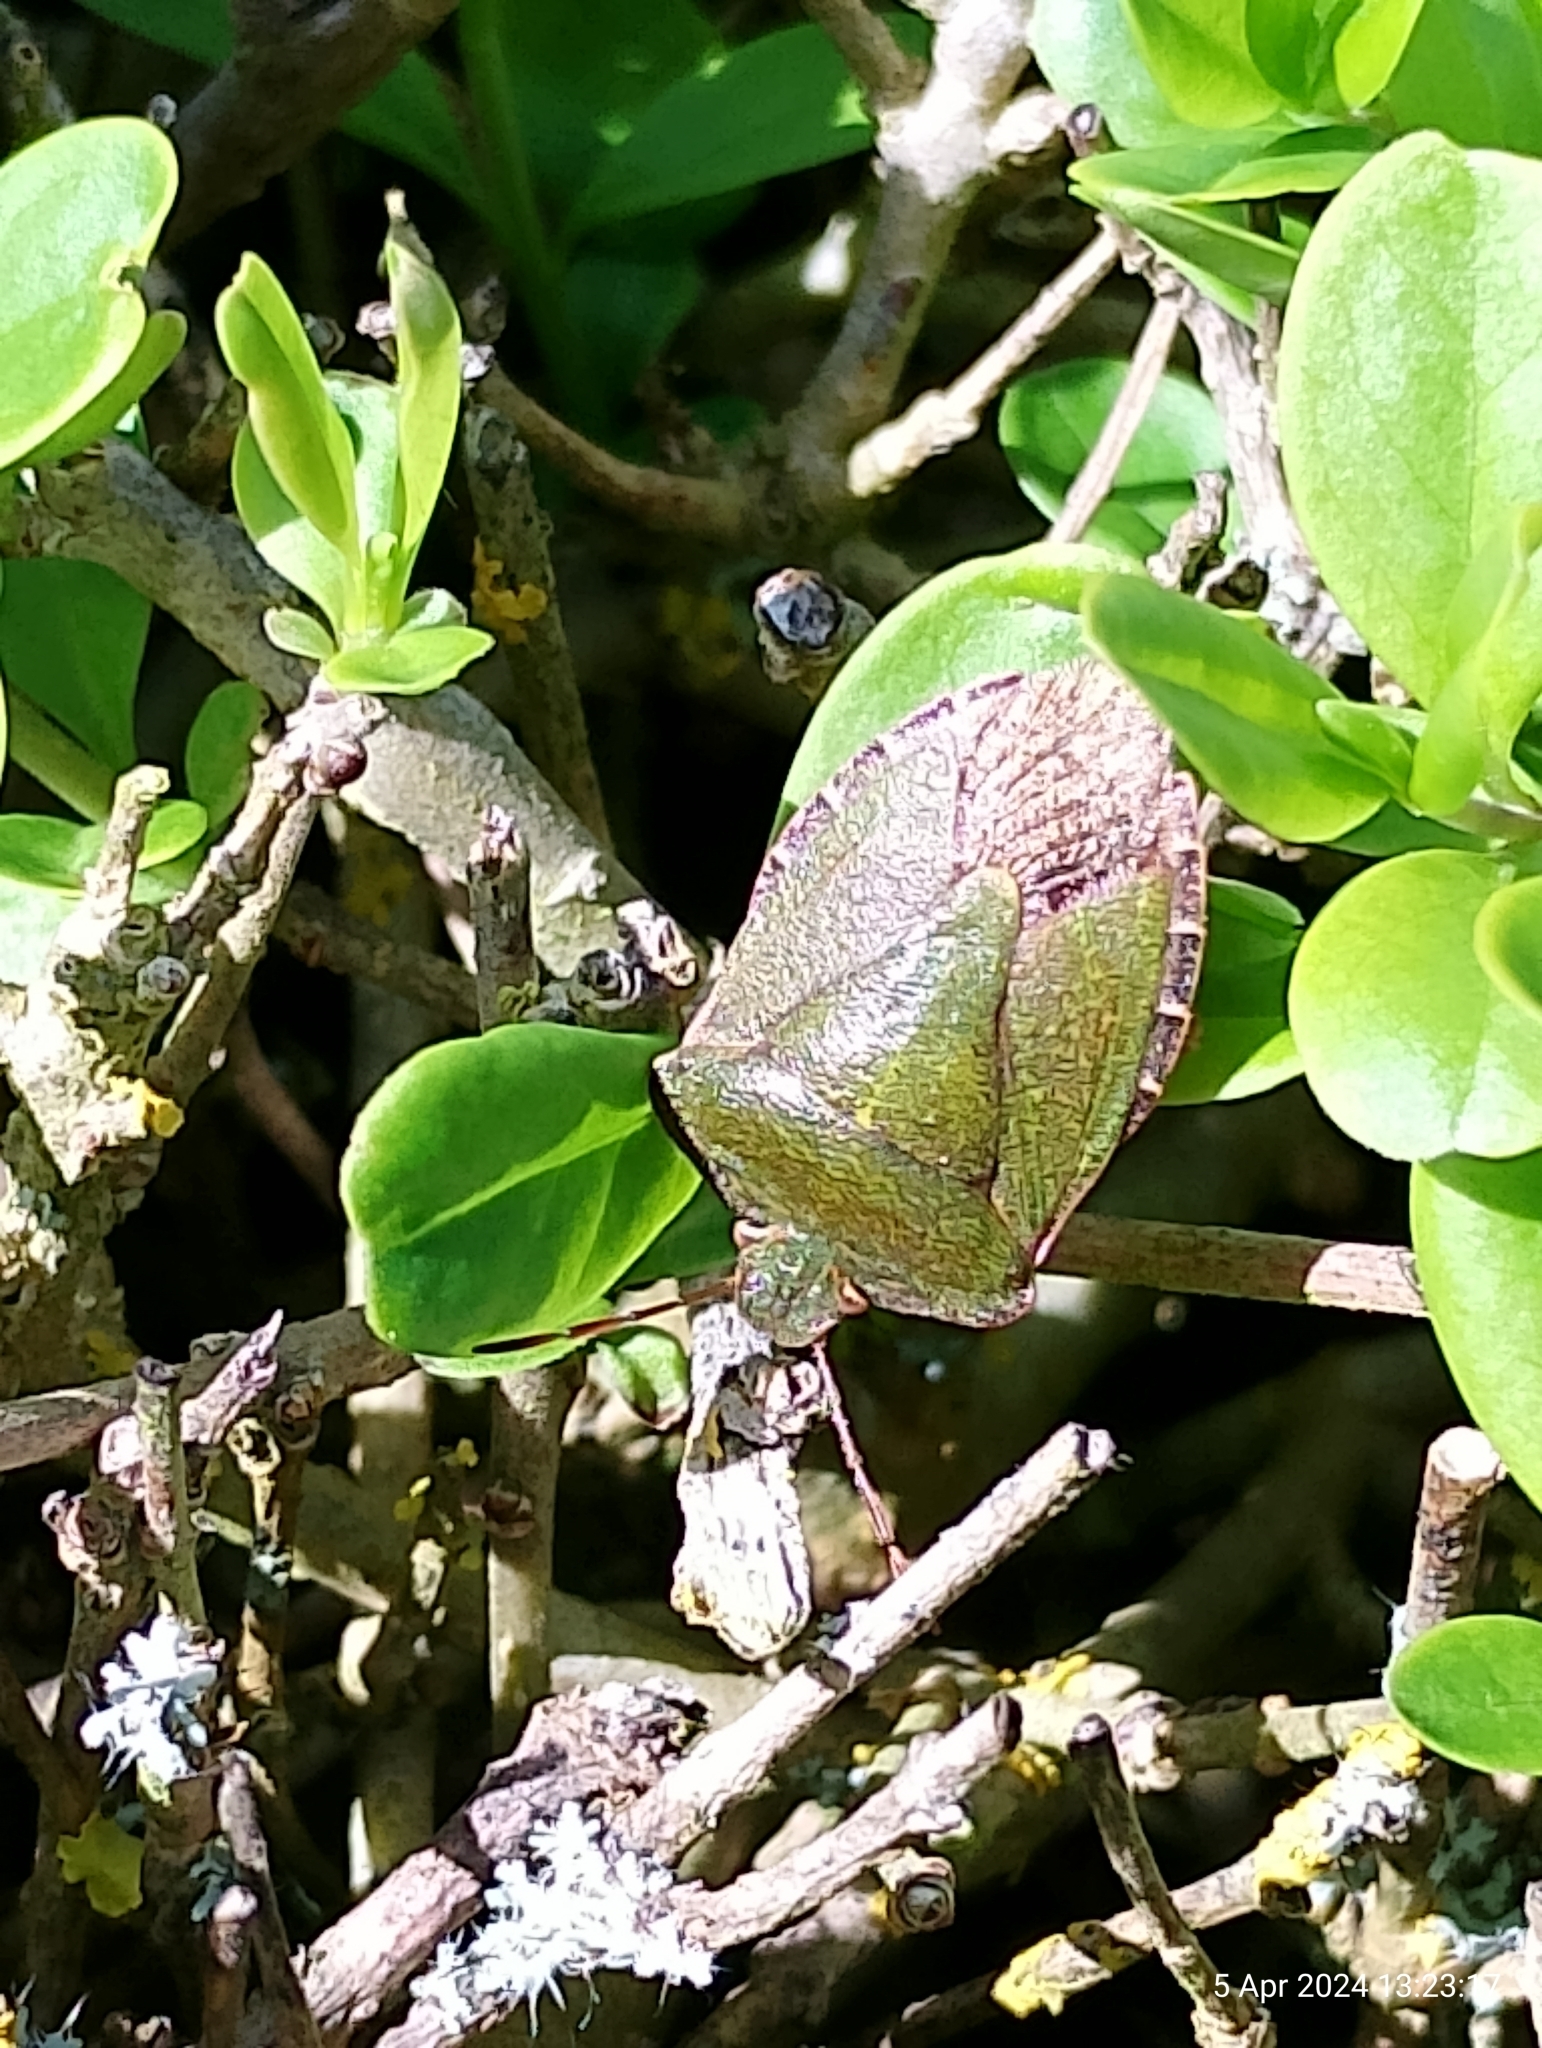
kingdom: Animalia
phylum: Arthropoda
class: Insecta
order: Hemiptera
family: Pentatomidae
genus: Palomena
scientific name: Palomena prasina
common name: Green shieldbug
